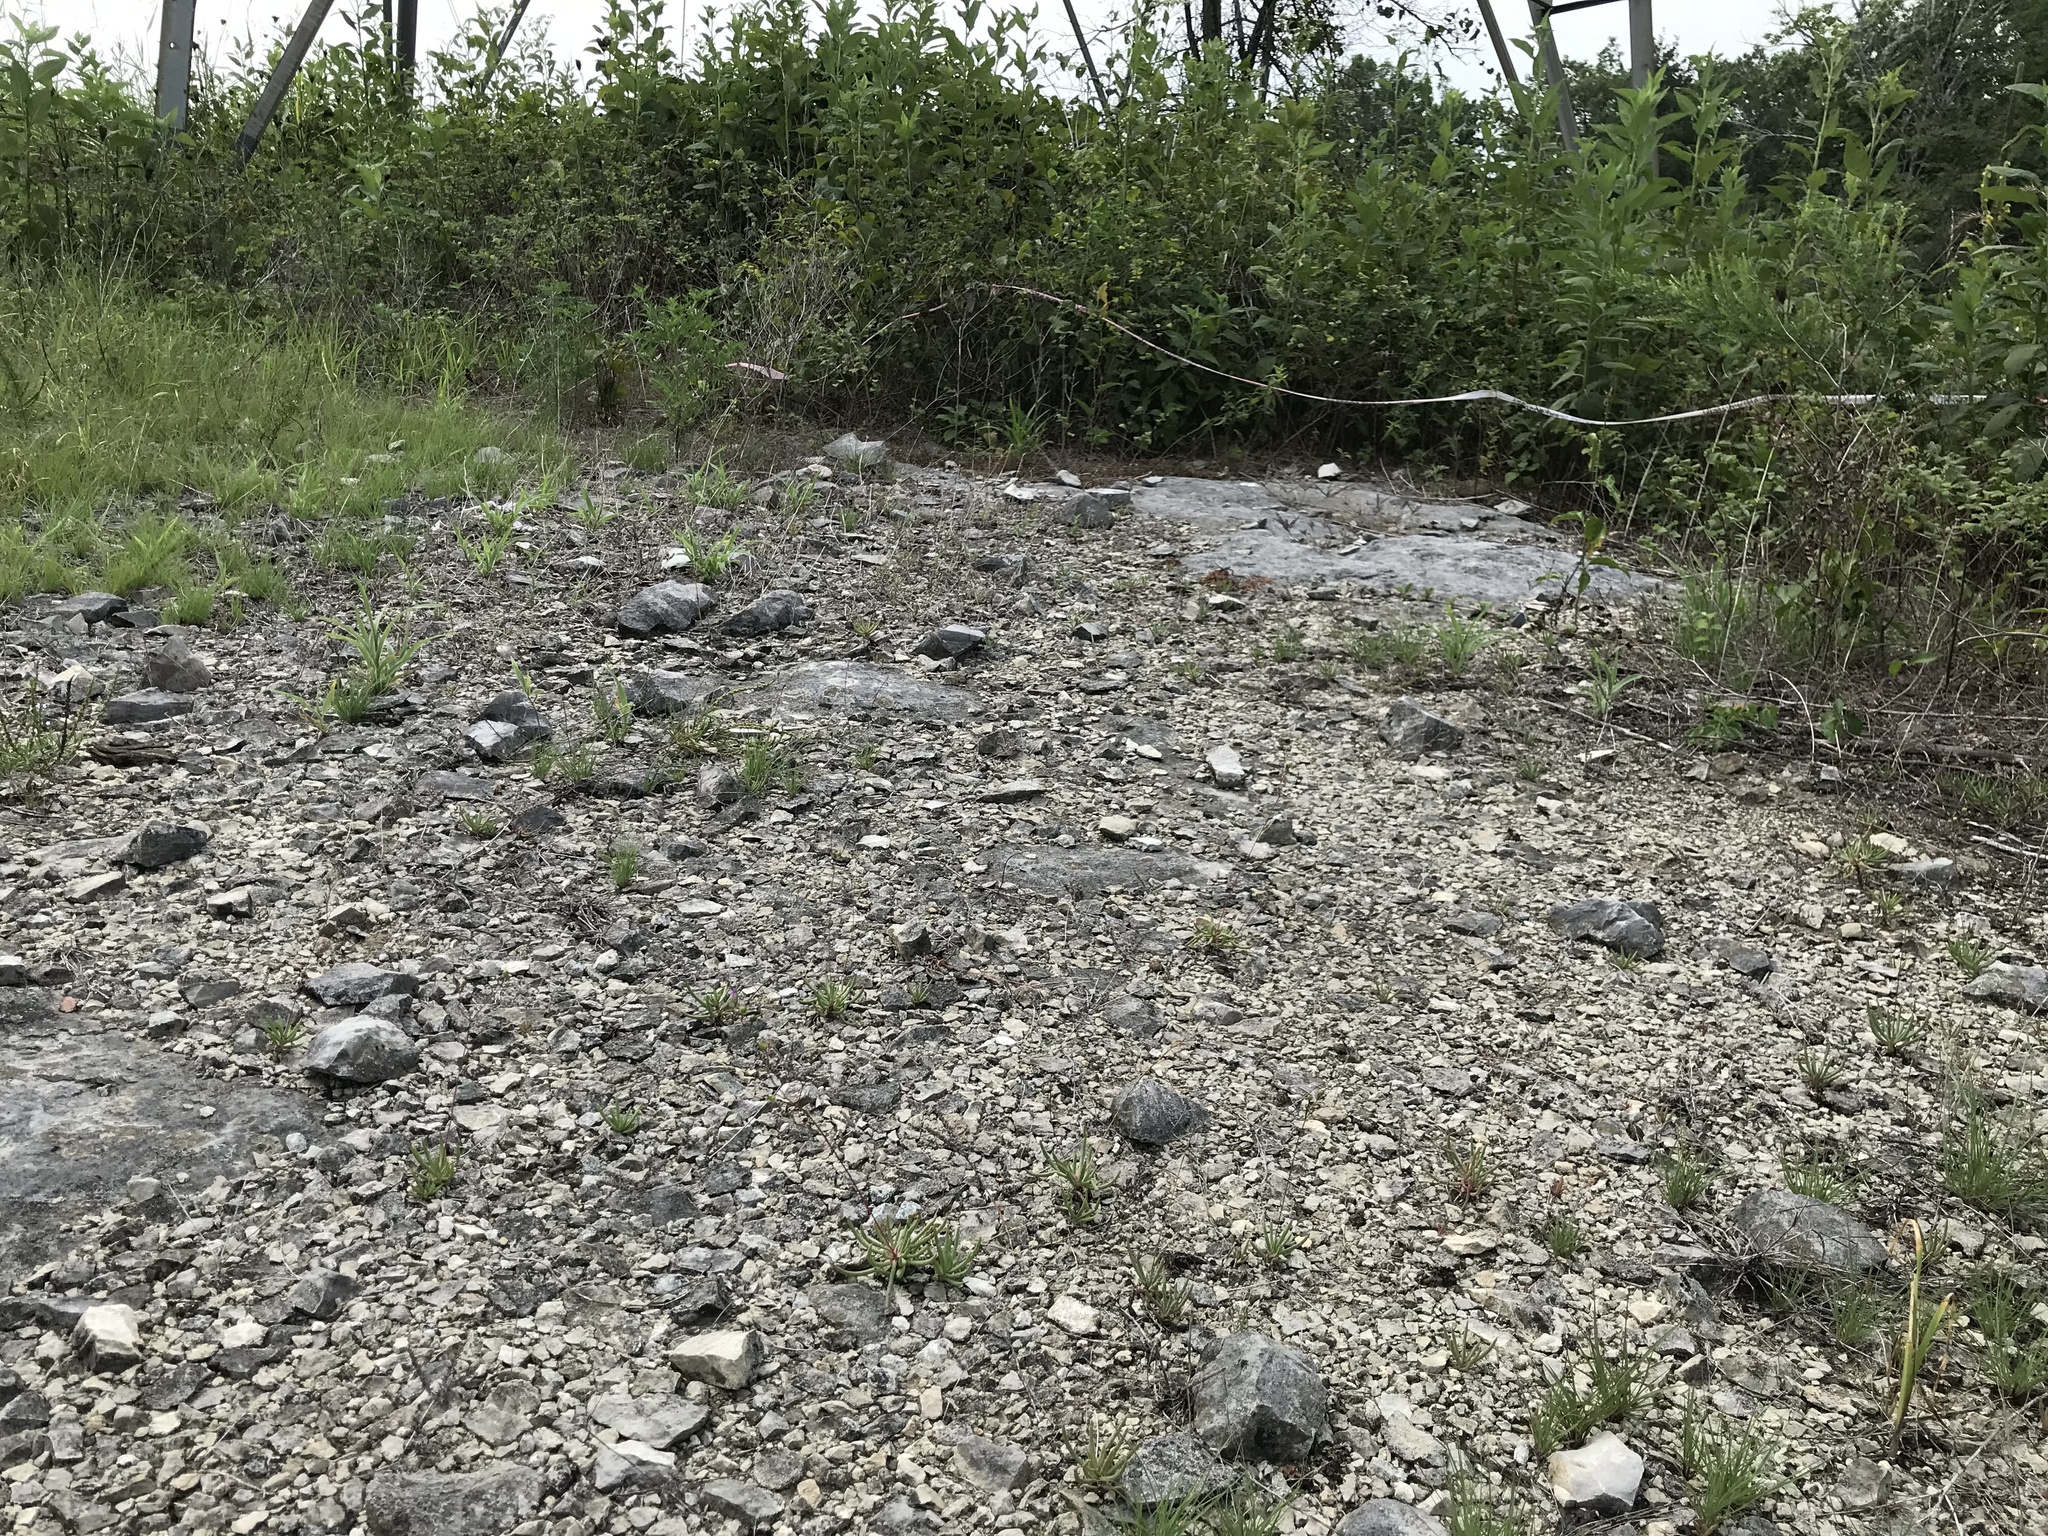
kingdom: Plantae
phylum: Tracheophyta
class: Magnoliopsida
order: Caryophyllales
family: Montiaceae
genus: Phemeranthus
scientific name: Phemeranthus calcaricus
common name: Limestone fameflower
